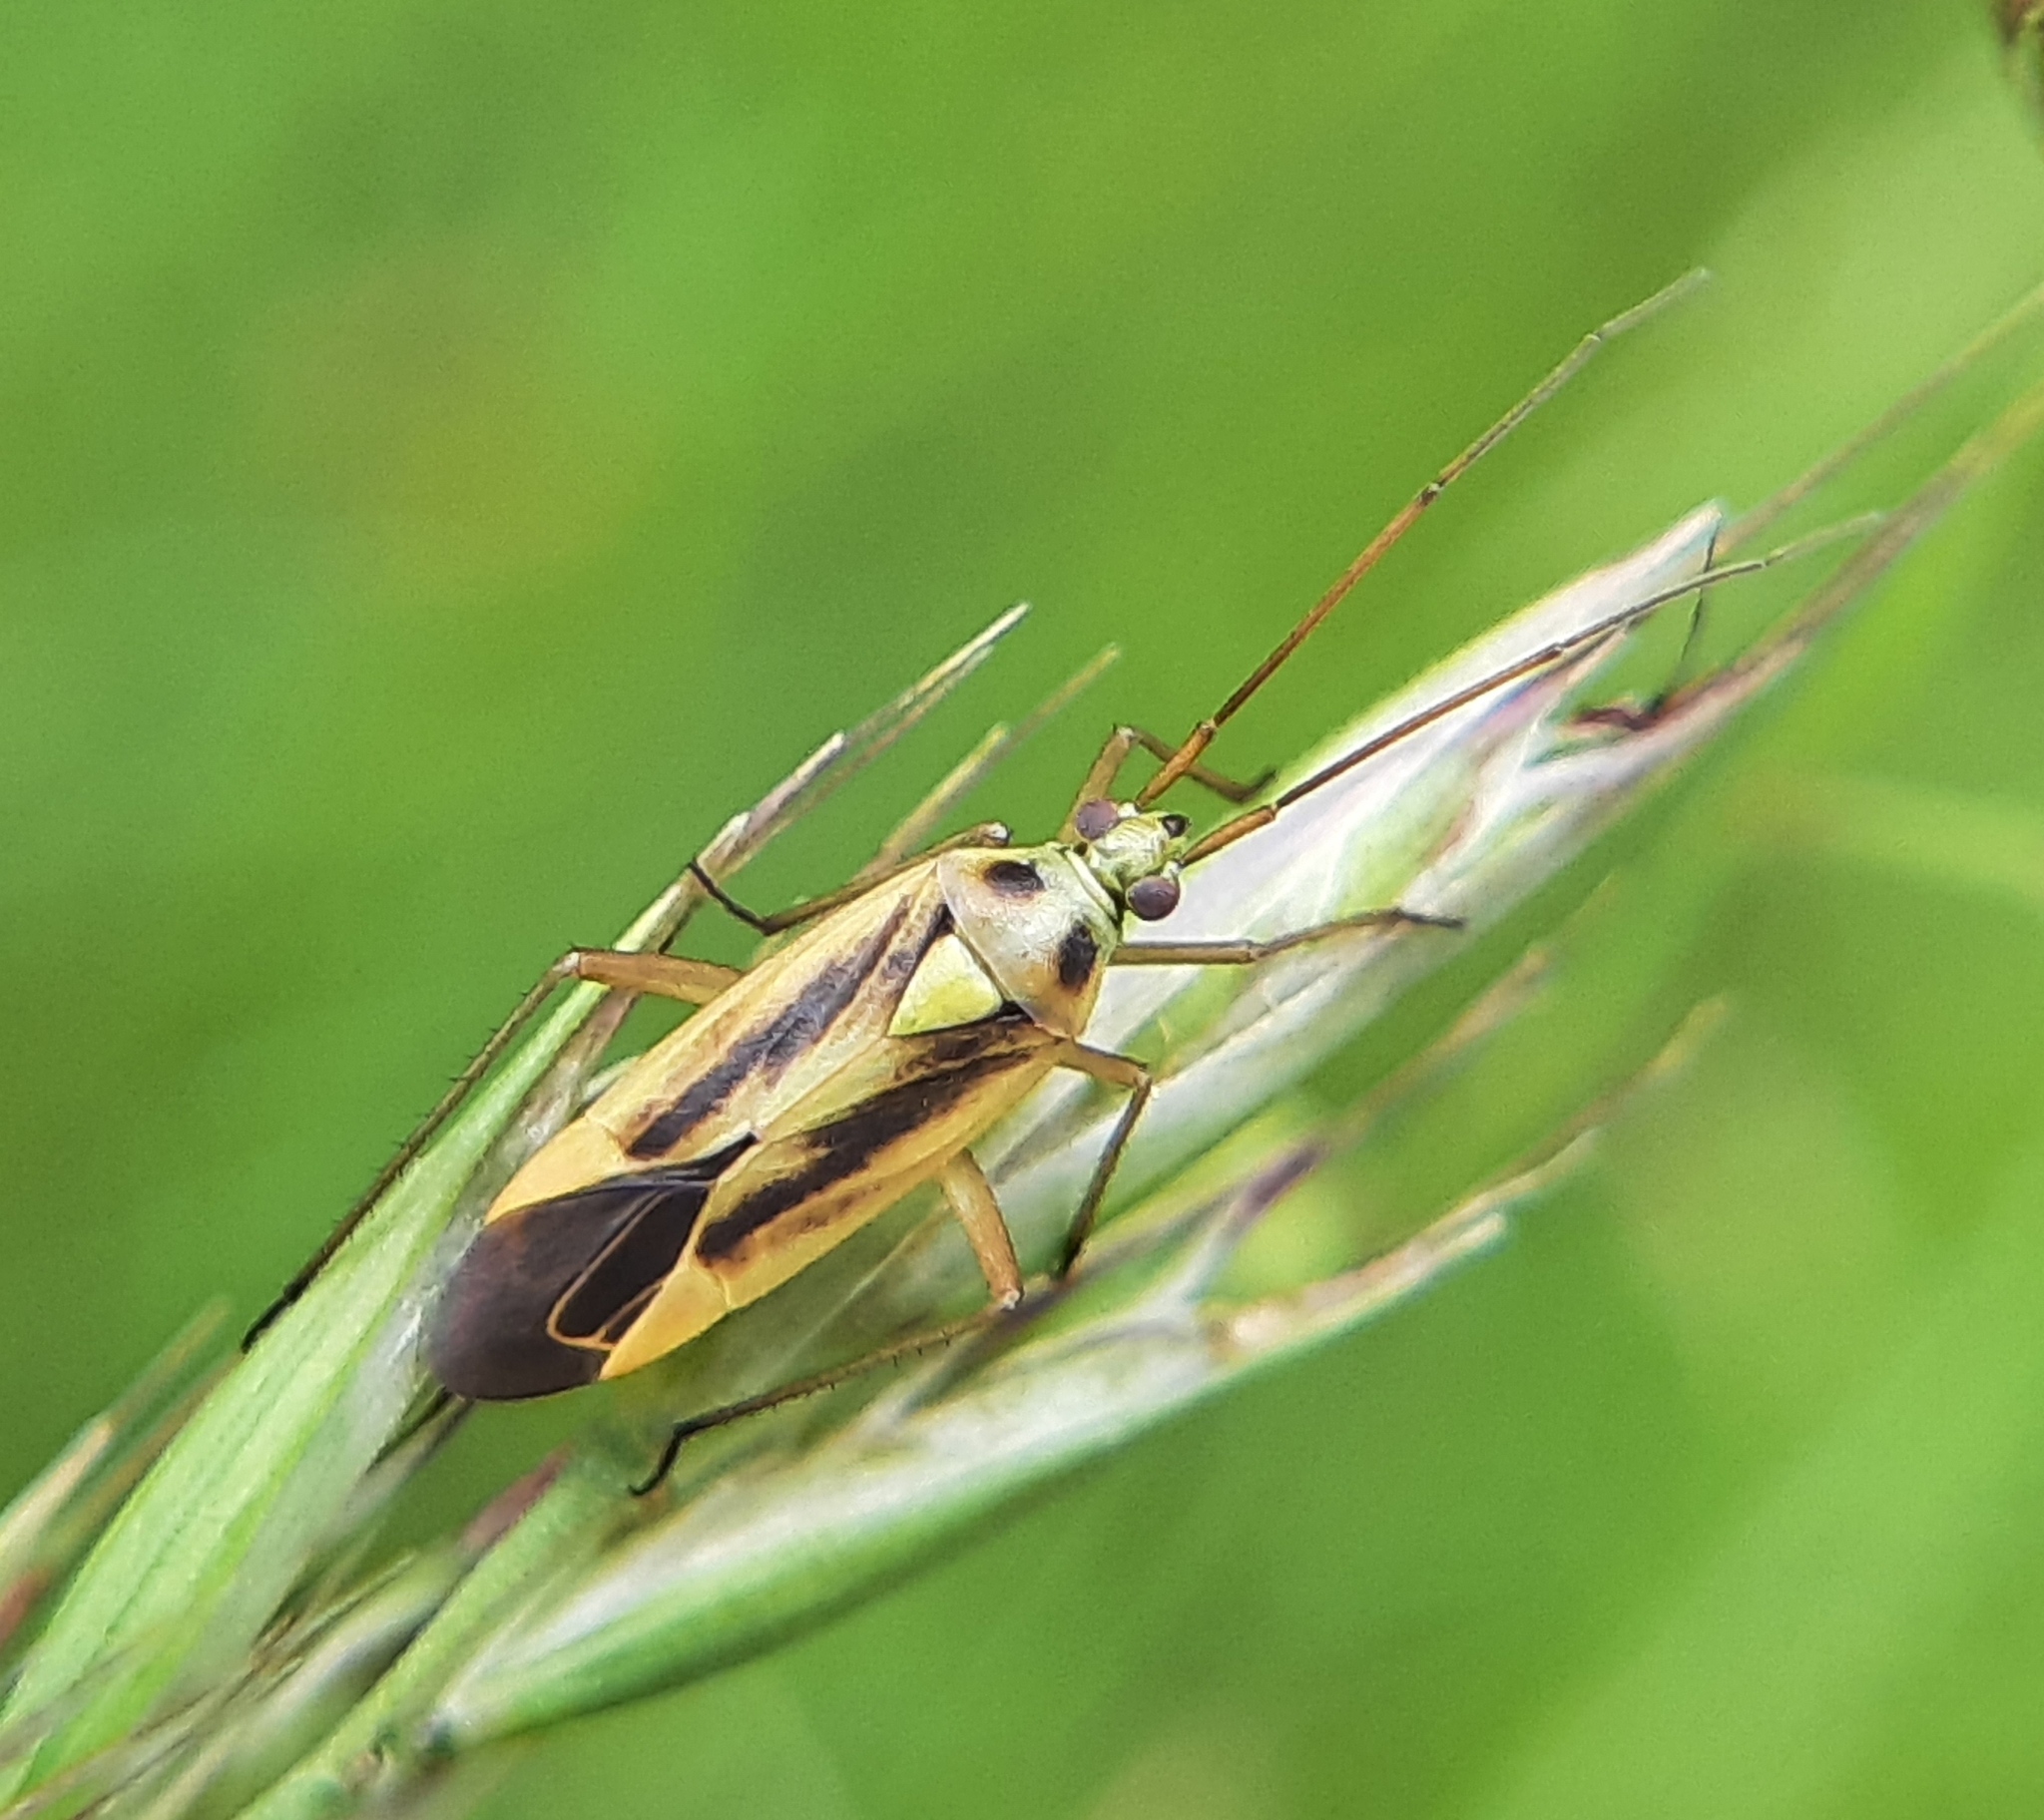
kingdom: Animalia
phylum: Arthropoda
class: Insecta
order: Hemiptera
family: Miridae
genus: Stenotus
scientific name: Stenotus binotatus
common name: Plant bug
